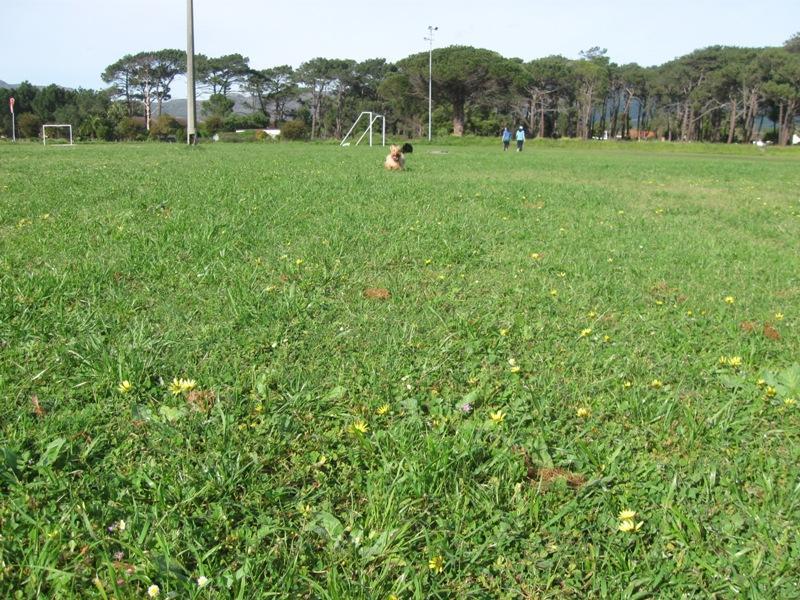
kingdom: Plantae
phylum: Tracheophyta
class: Magnoliopsida
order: Asterales
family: Asteraceae
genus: Arctotheca
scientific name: Arctotheca calendula
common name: Capeweed
